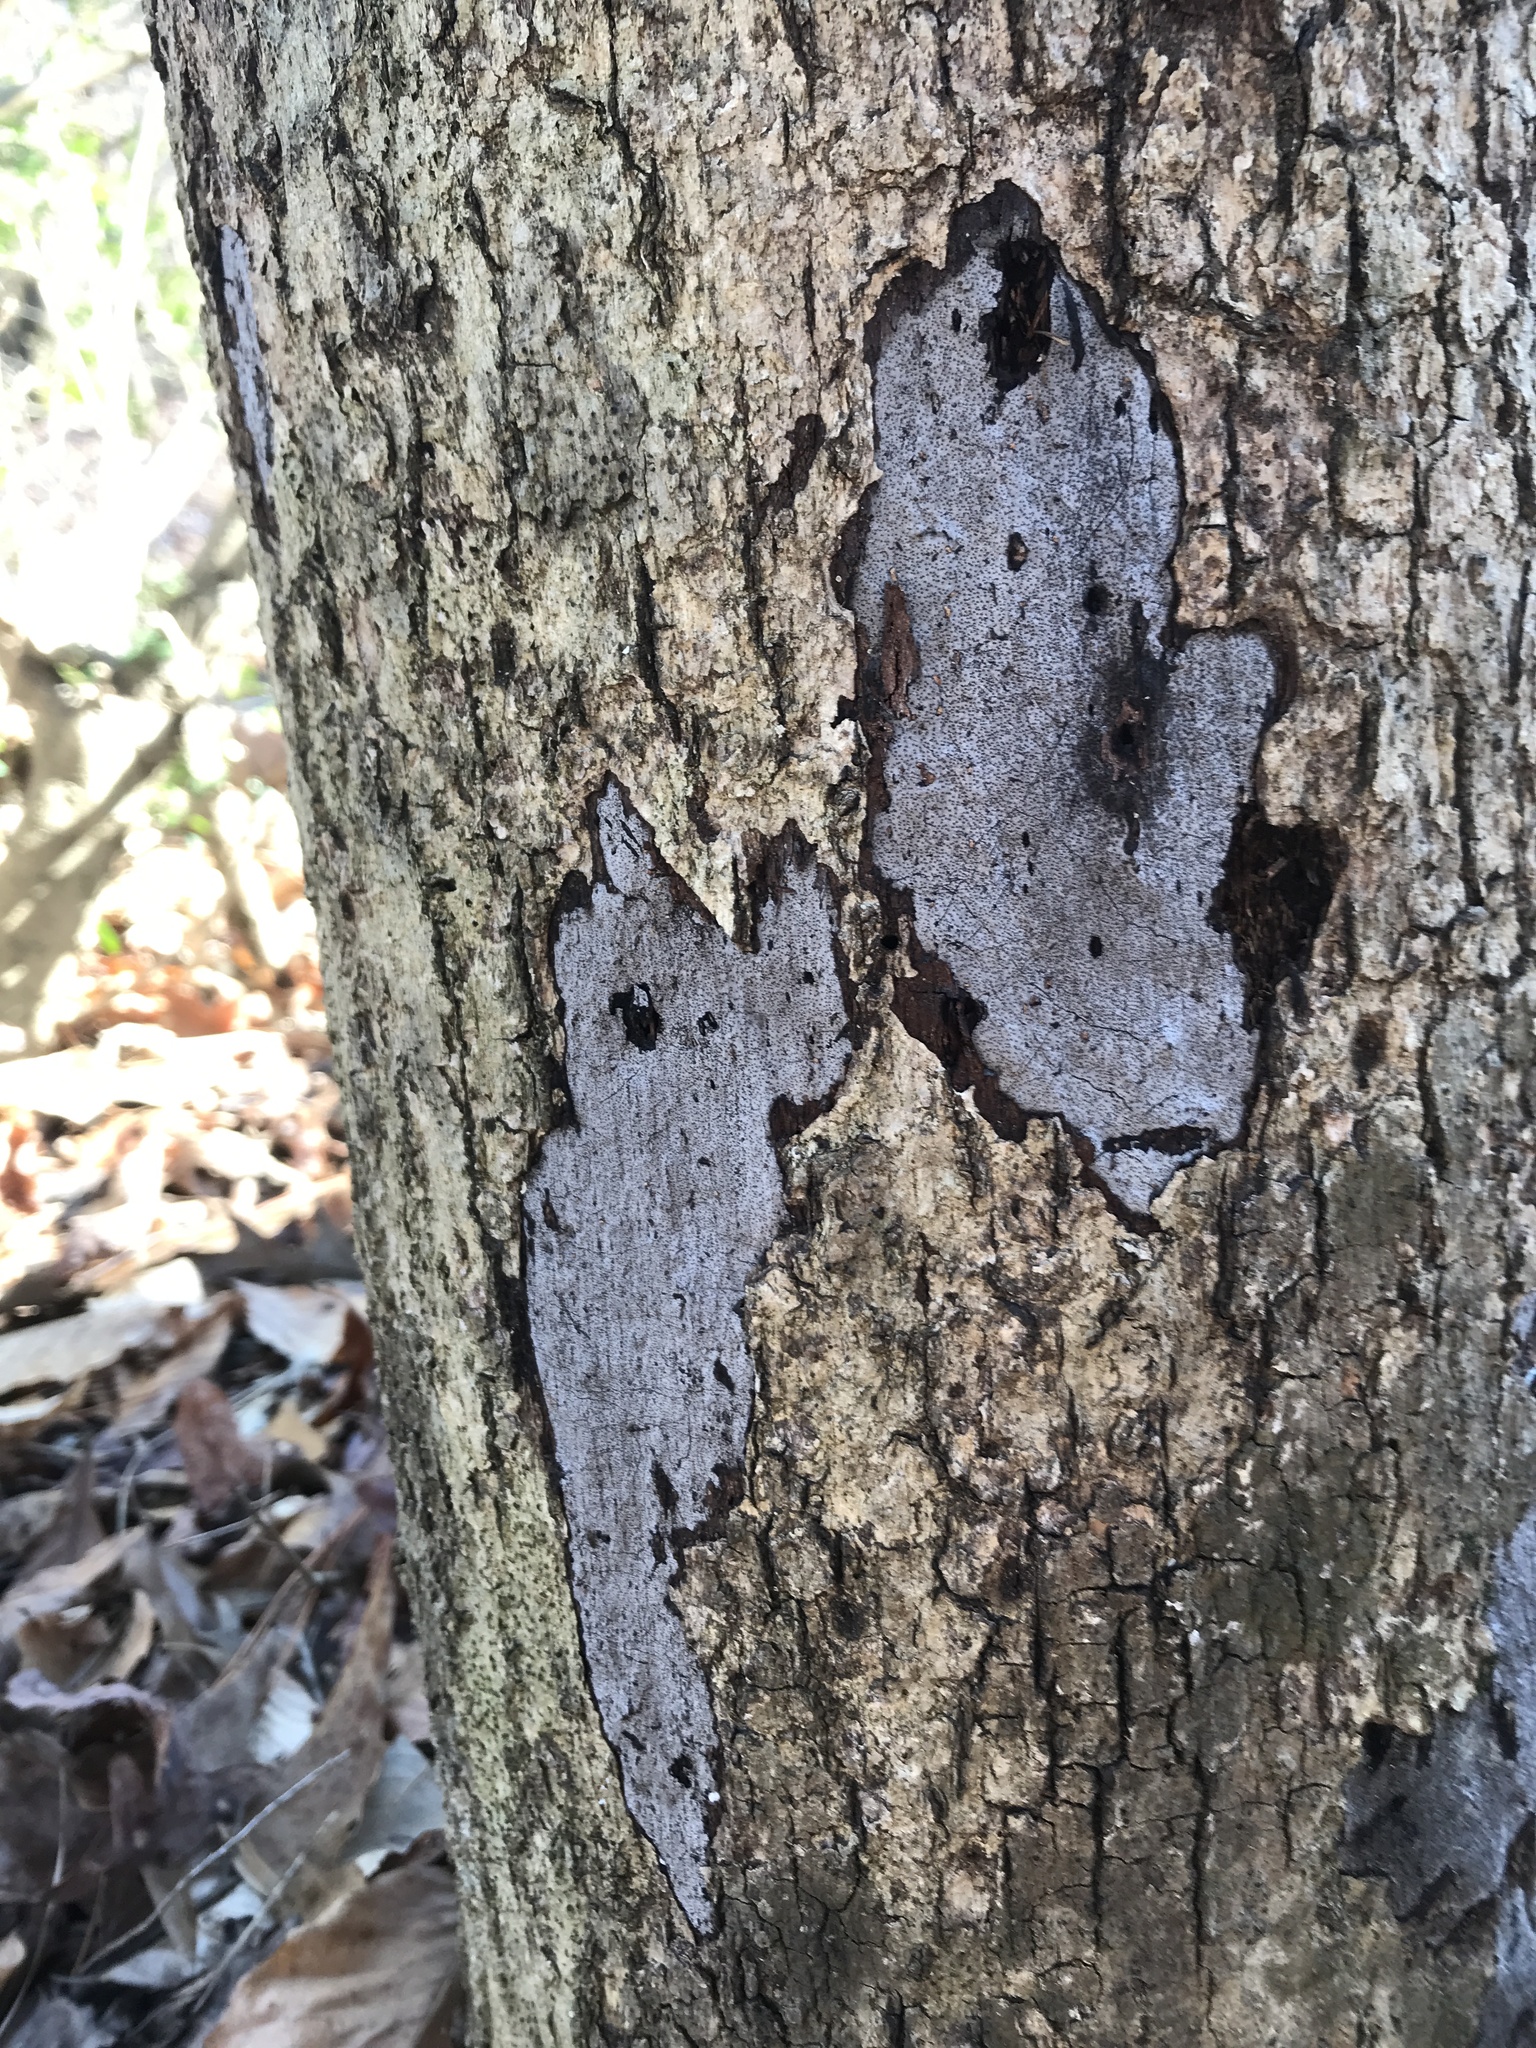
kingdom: Fungi
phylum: Ascomycota
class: Sordariomycetes
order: Xylariales
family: Graphostromataceae
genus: Biscogniauxia
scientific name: Biscogniauxia atropunctata
